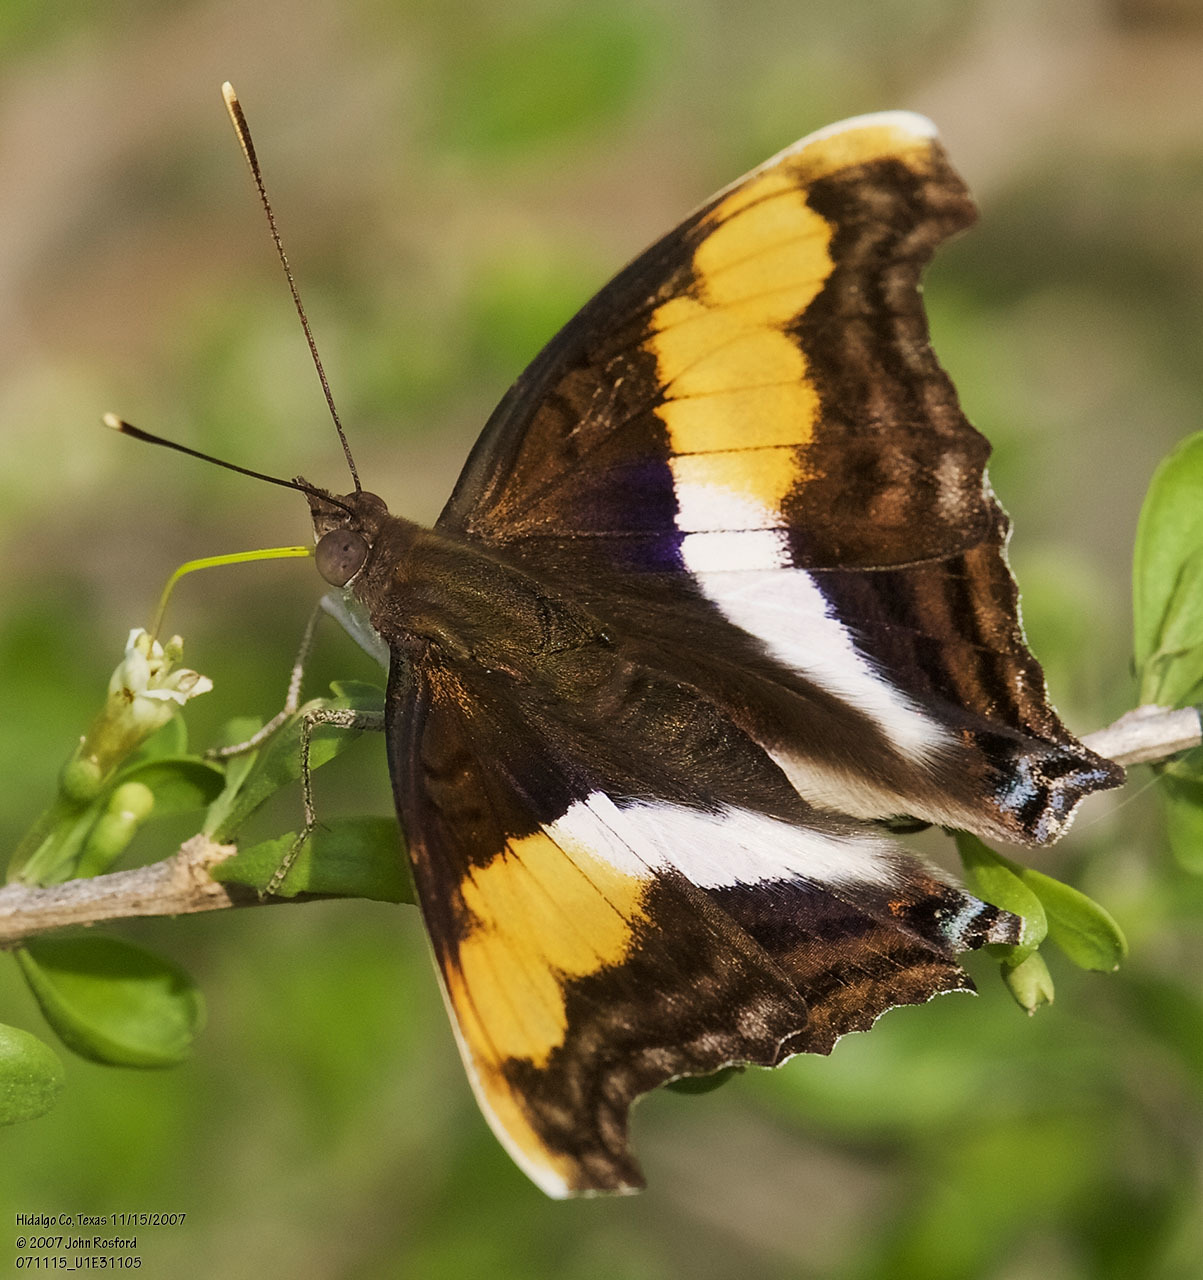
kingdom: Animalia
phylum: Arthropoda
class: Insecta
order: Lepidoptera
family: Nymphalidae
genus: Doxocopa
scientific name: Doxocopa laure
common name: Silver emperor
